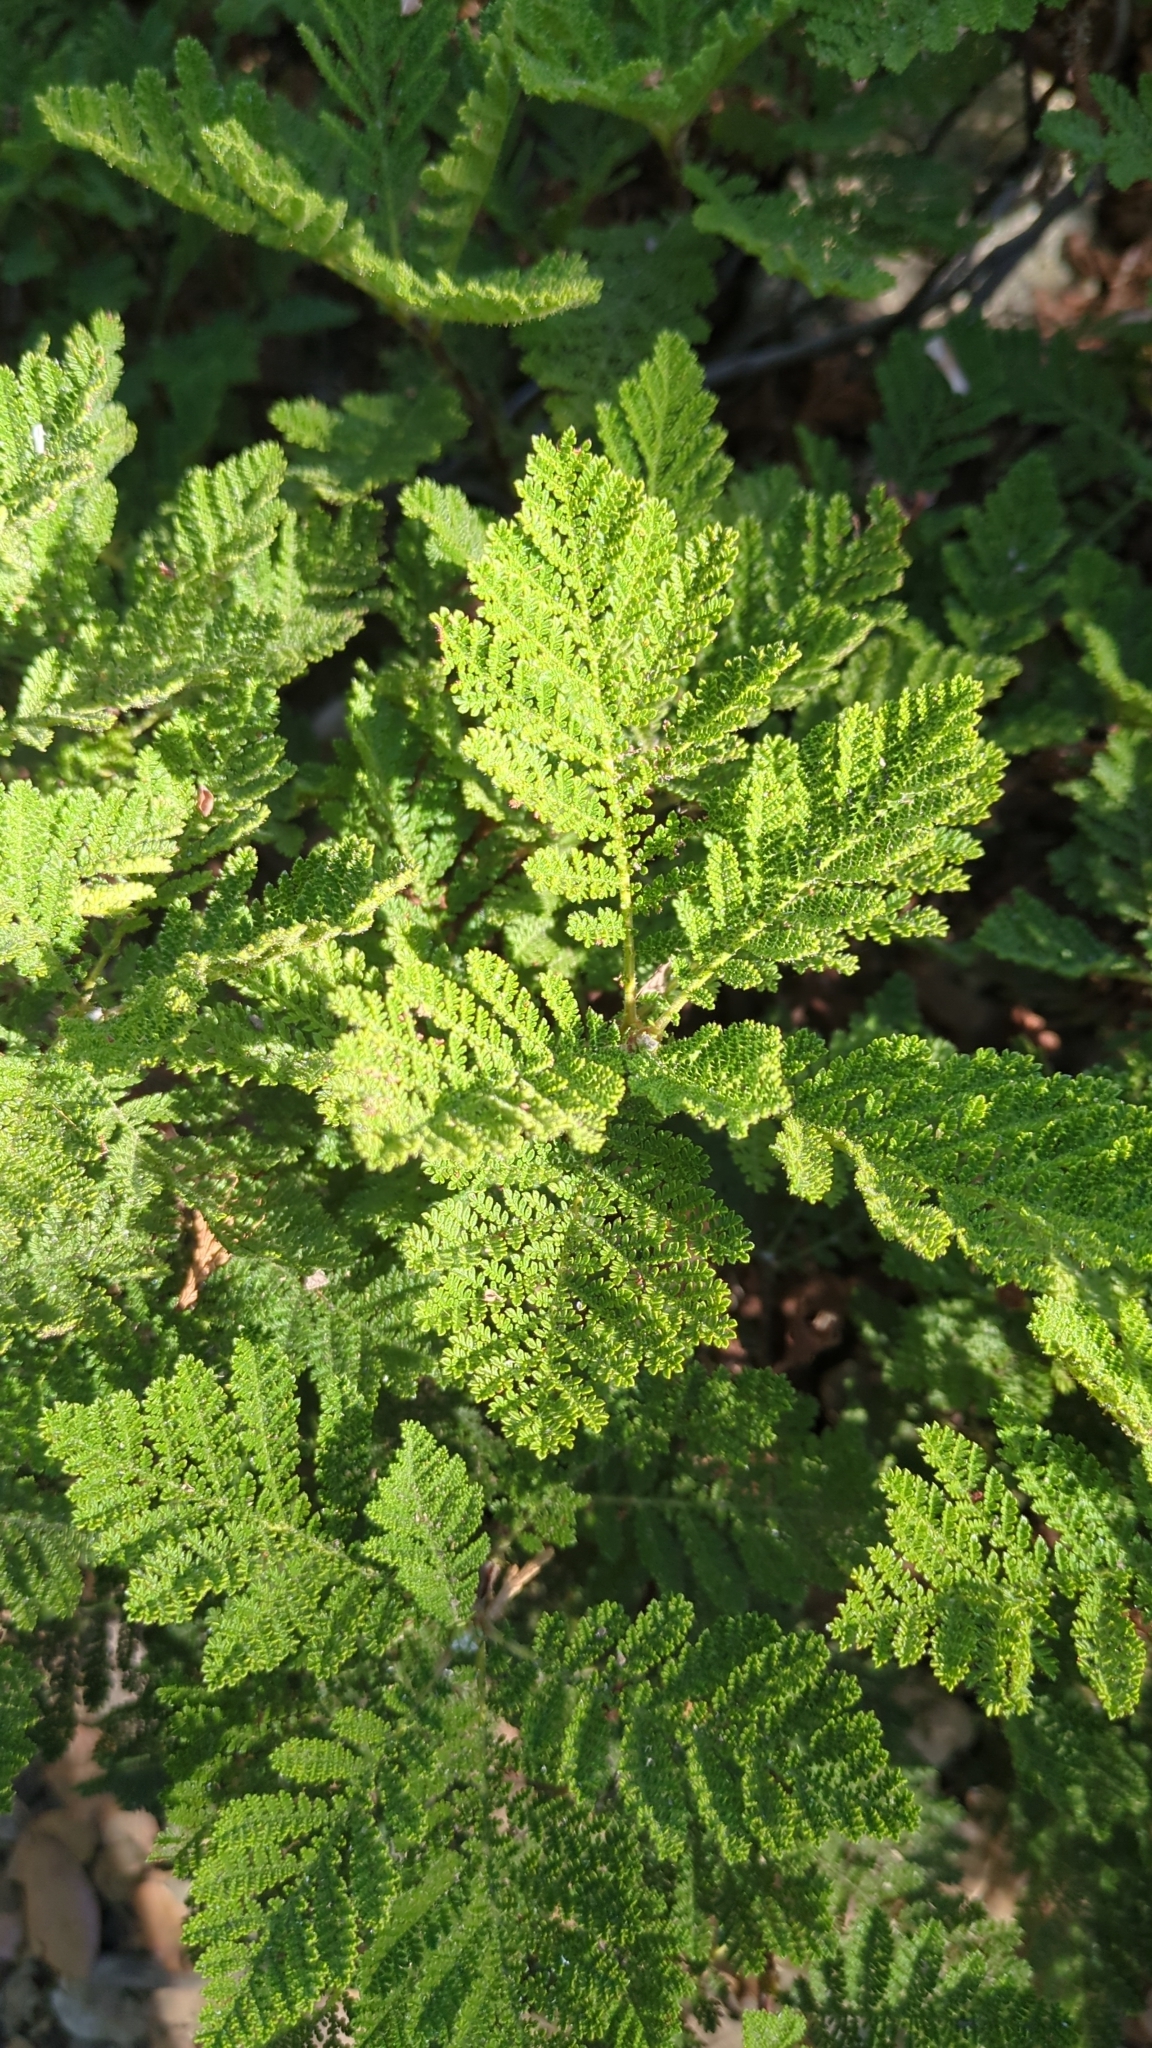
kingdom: Plantae
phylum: Tracheophyta
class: Magnoliopsida
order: Rosales
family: Rosaceae
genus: Chamaebatia
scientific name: Chamaebatia foliolosa
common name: Mountain misery
